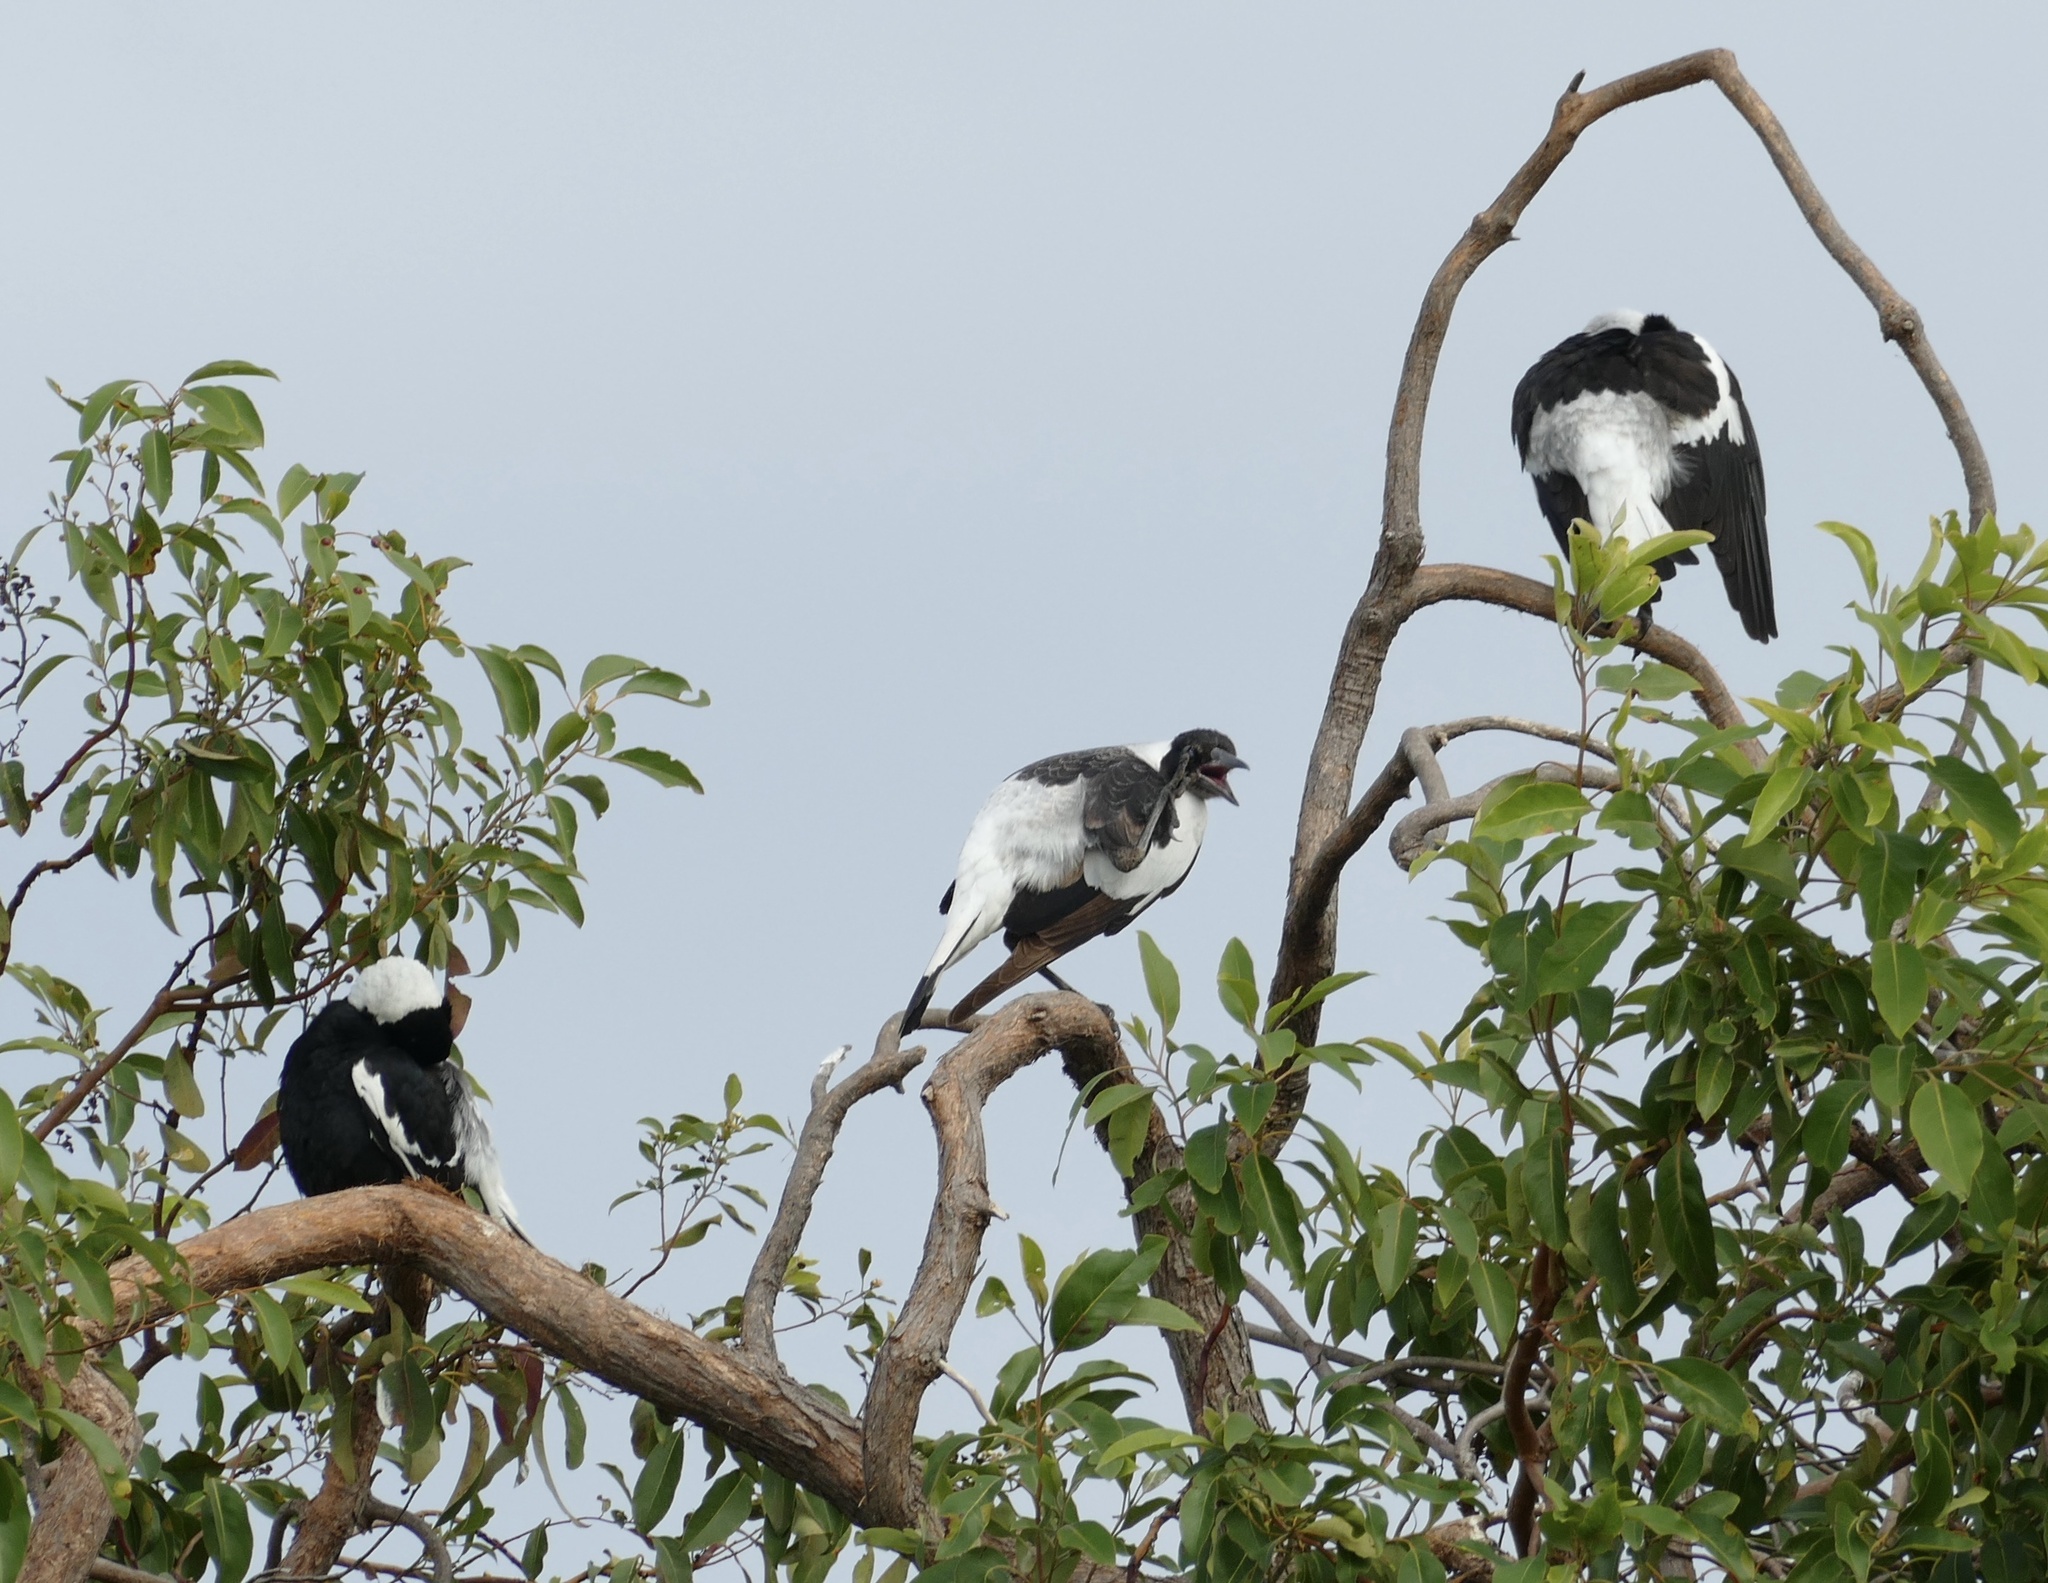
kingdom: Animalia
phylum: Chordata
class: Aves
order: Passeriformes
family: Cracticidae
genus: Gymnorhina
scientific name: Gymnorhina tibicen
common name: Australian magpie
